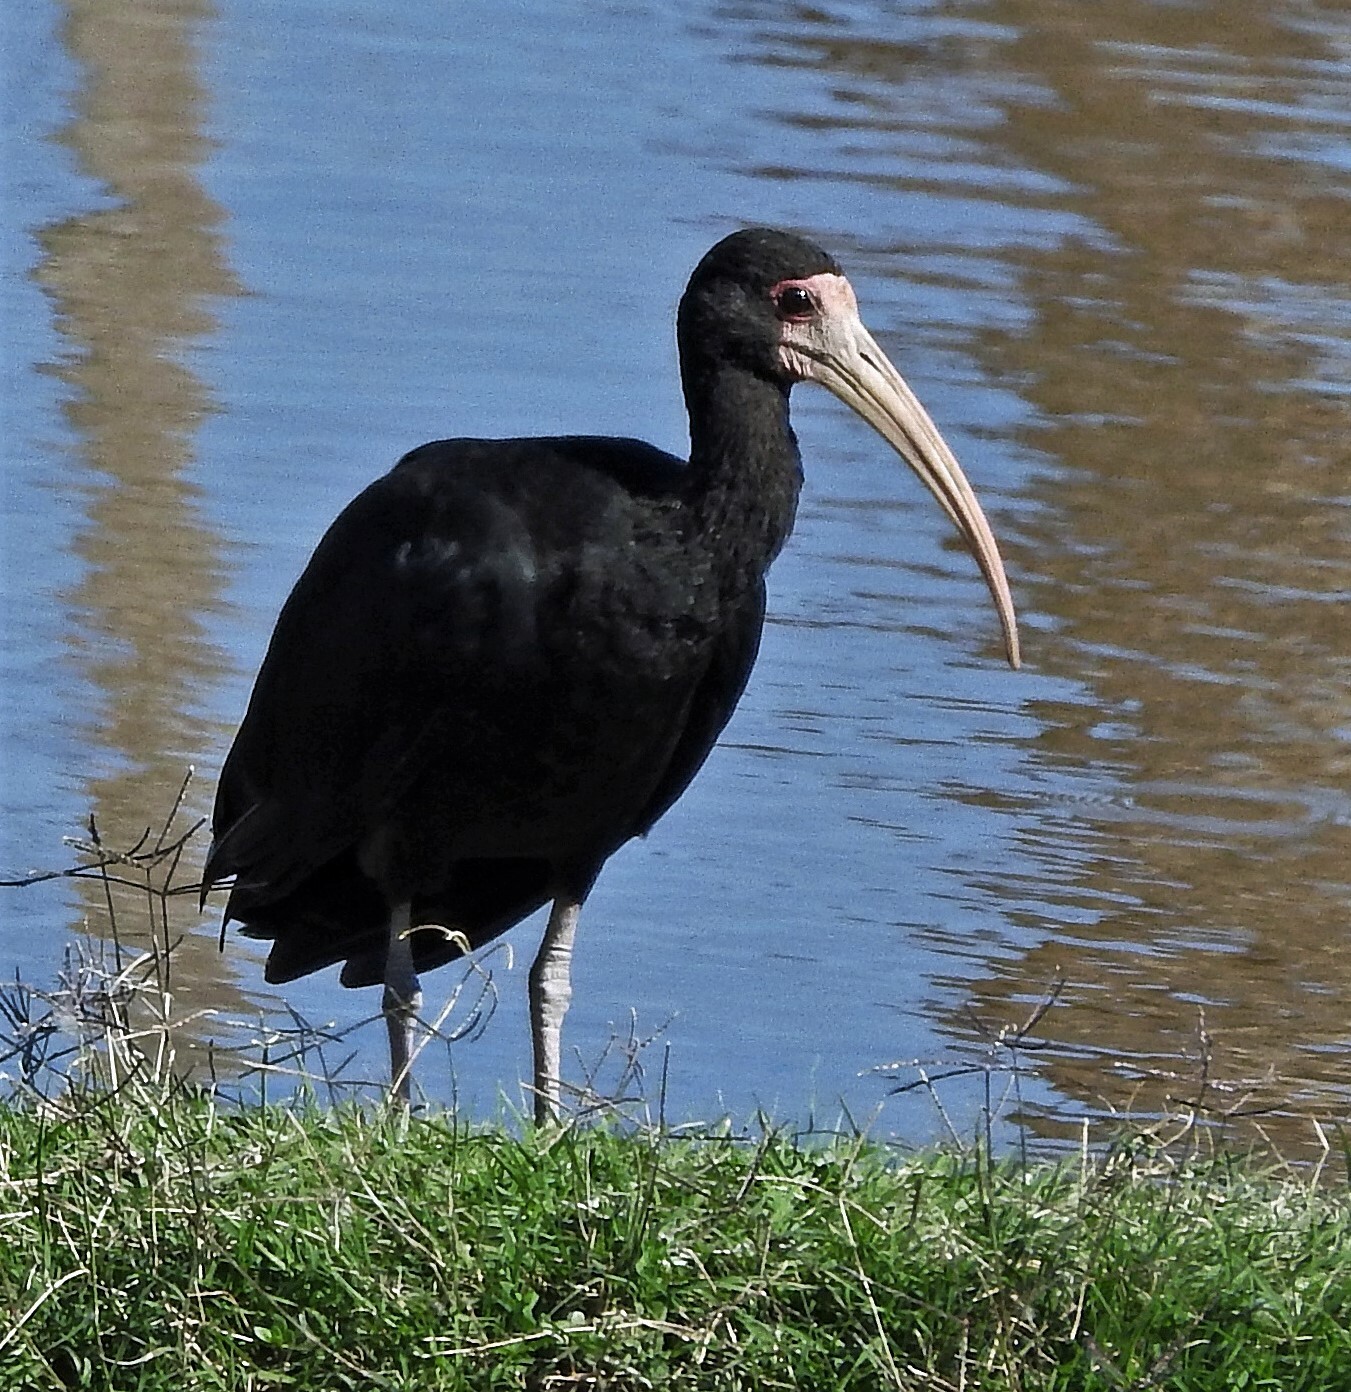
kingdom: Animalia
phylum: Chordata
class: Aves
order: Pelecaniformes
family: Threskiornithidae
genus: Phimosus
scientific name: Phimosus infuscatus
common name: Bare-faced ibis
